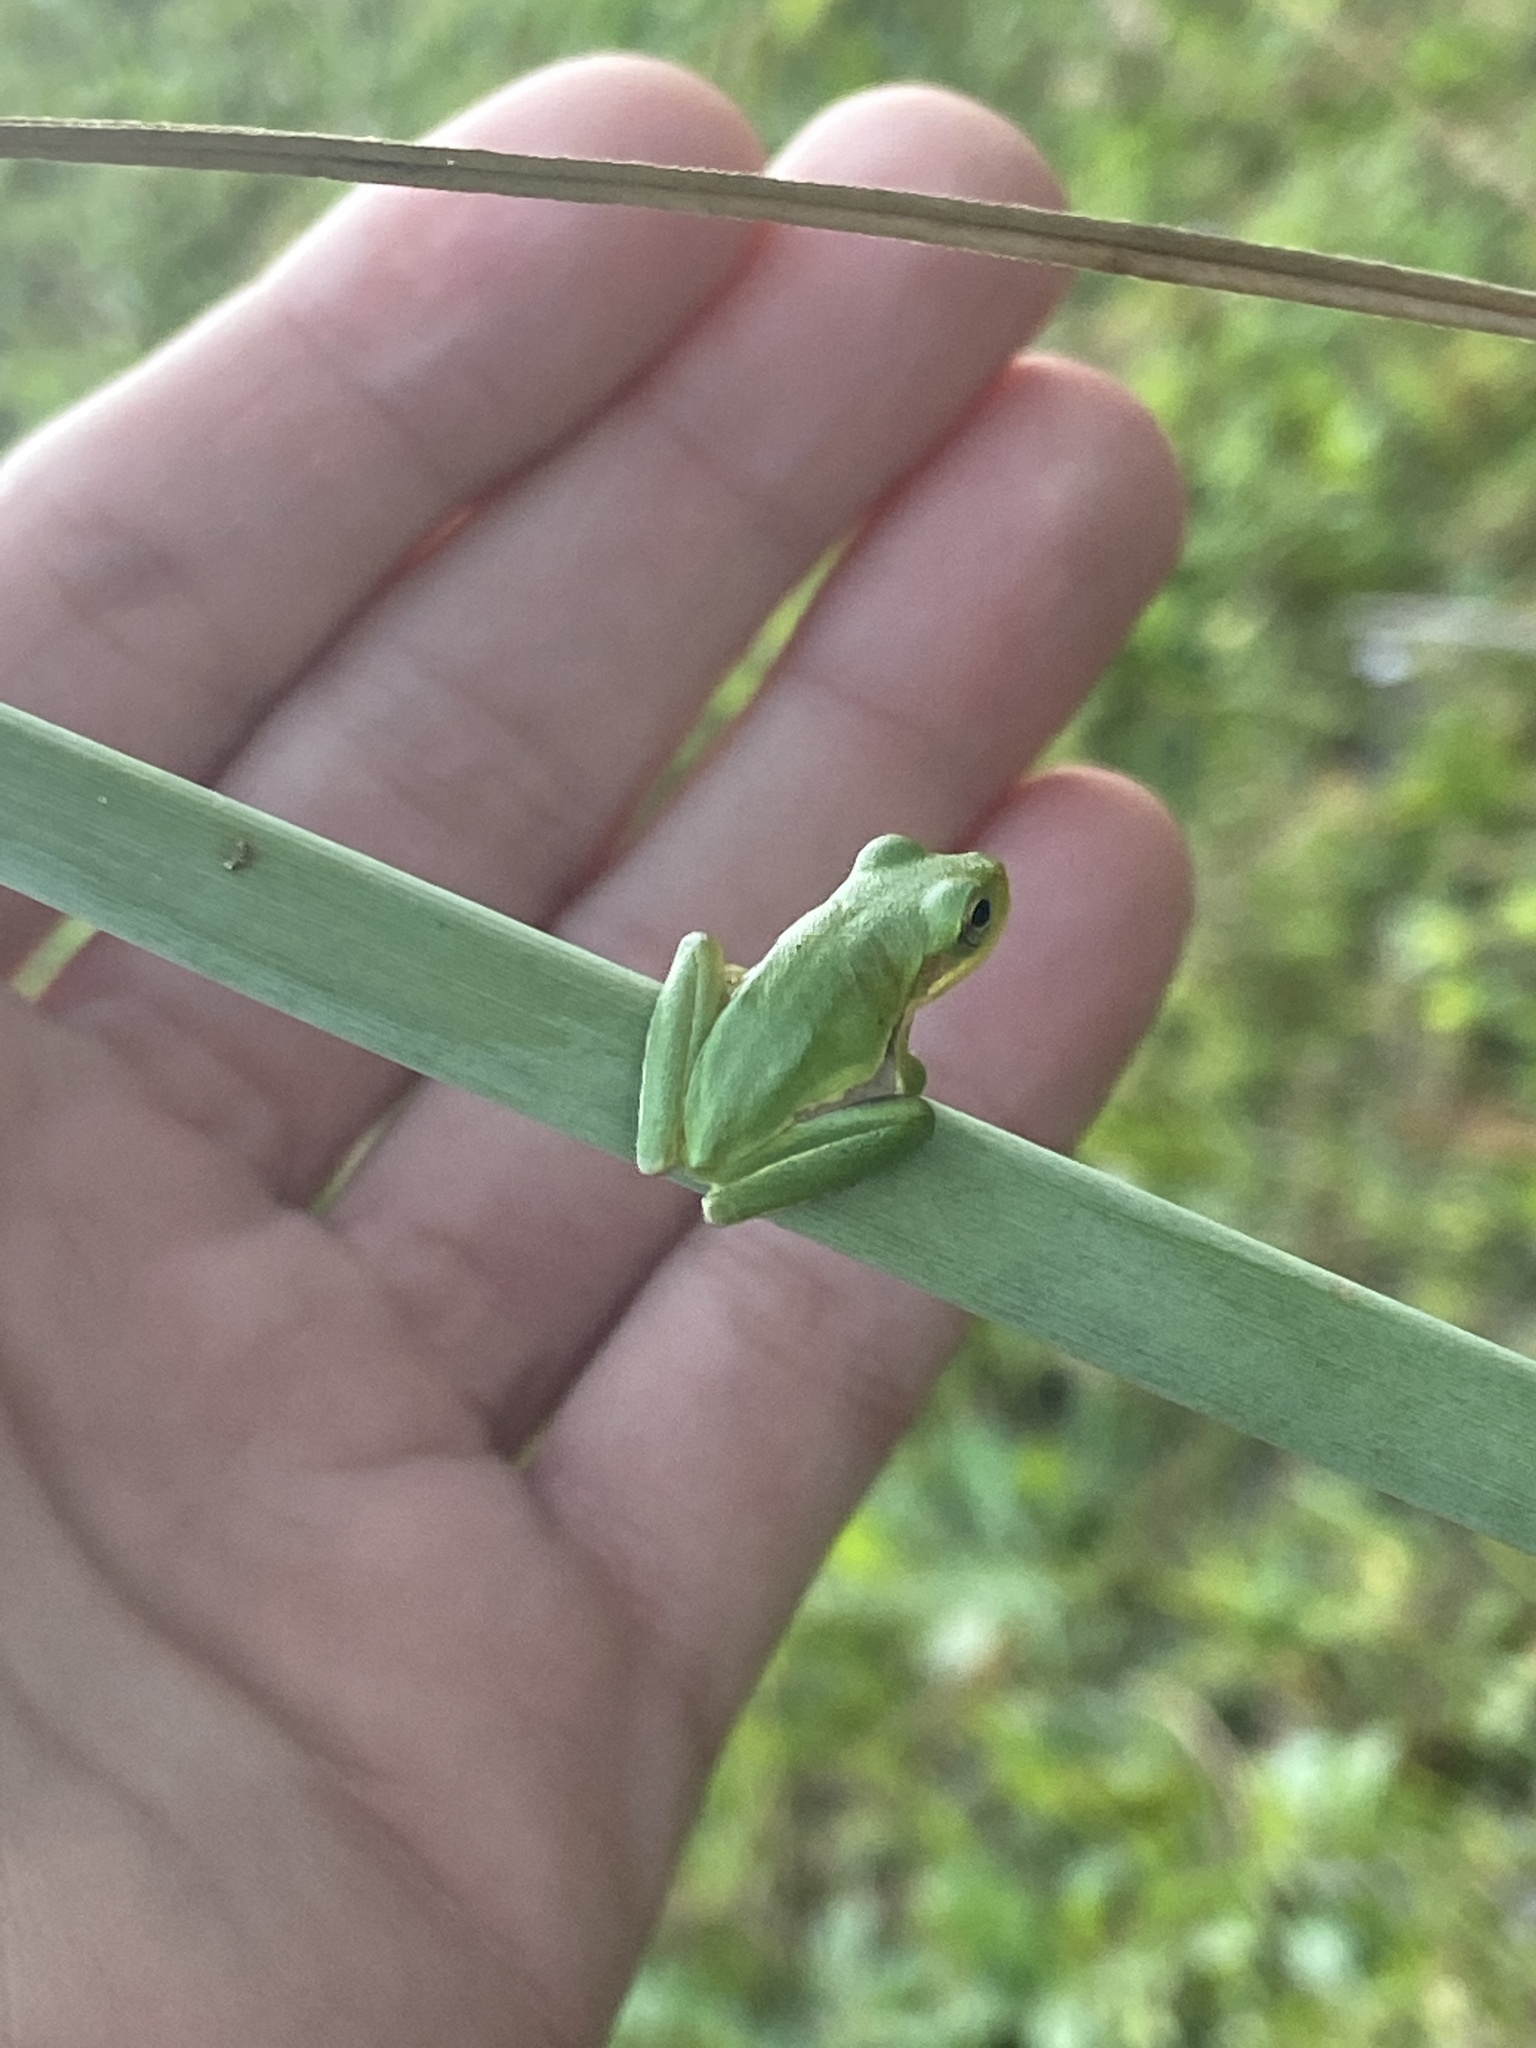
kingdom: Animalia
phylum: Chordata
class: Amphibia
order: Anura
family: Hylidae
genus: Dryophytes
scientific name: Dryophytes squirellus
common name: Squirrel treefrog
